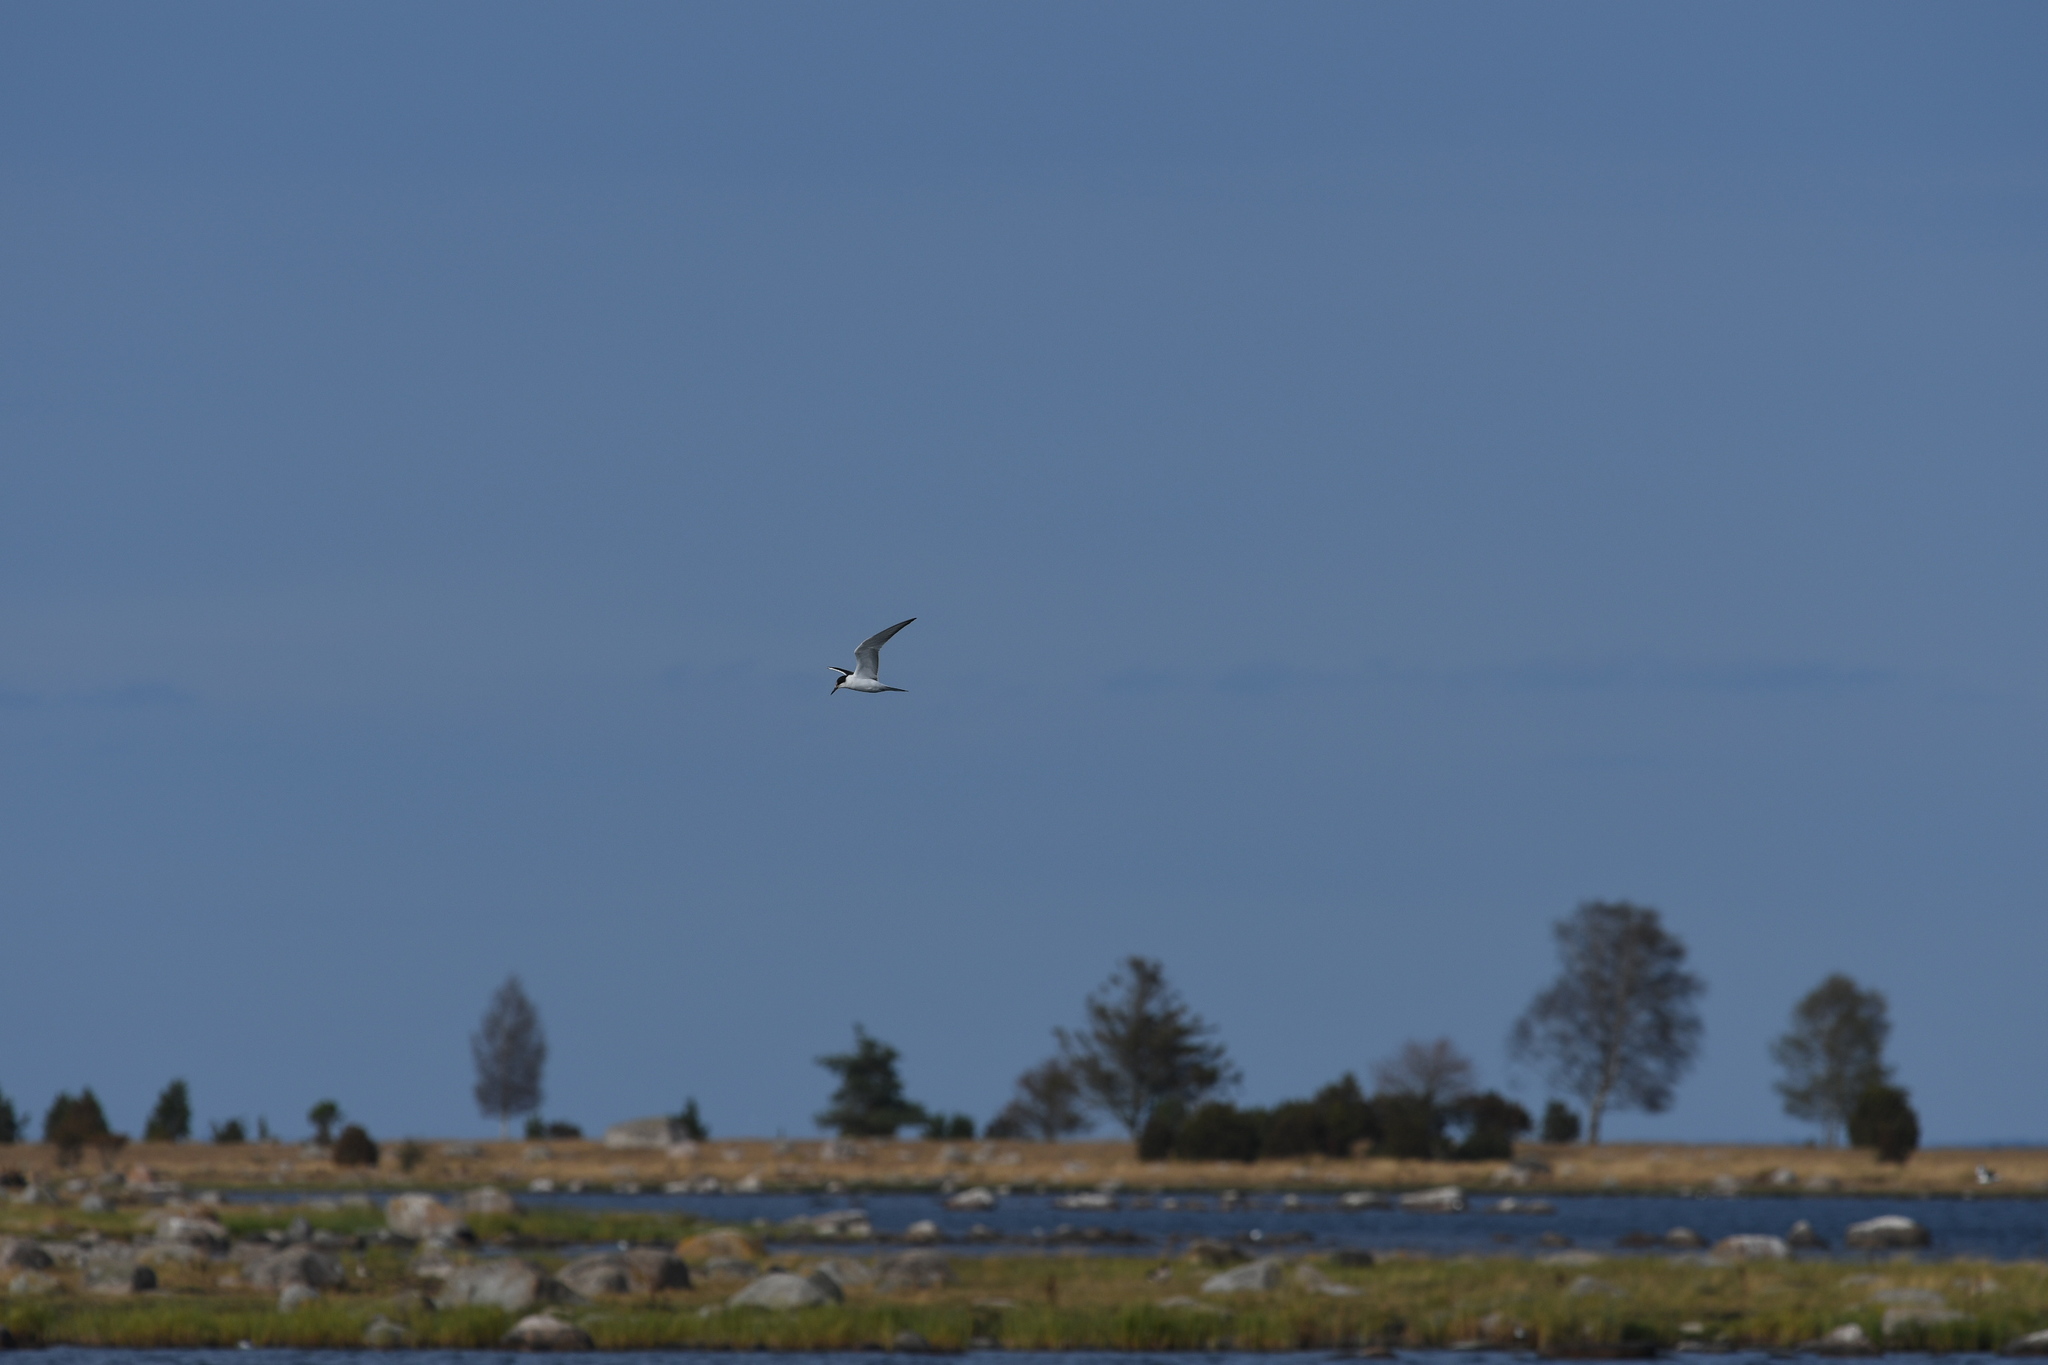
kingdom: Animalia
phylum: Chordata
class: Aves
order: Charadriiformes
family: Laridae
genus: Thalasseus
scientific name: Thalasseus sandvicensis
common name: Sandwich tern
